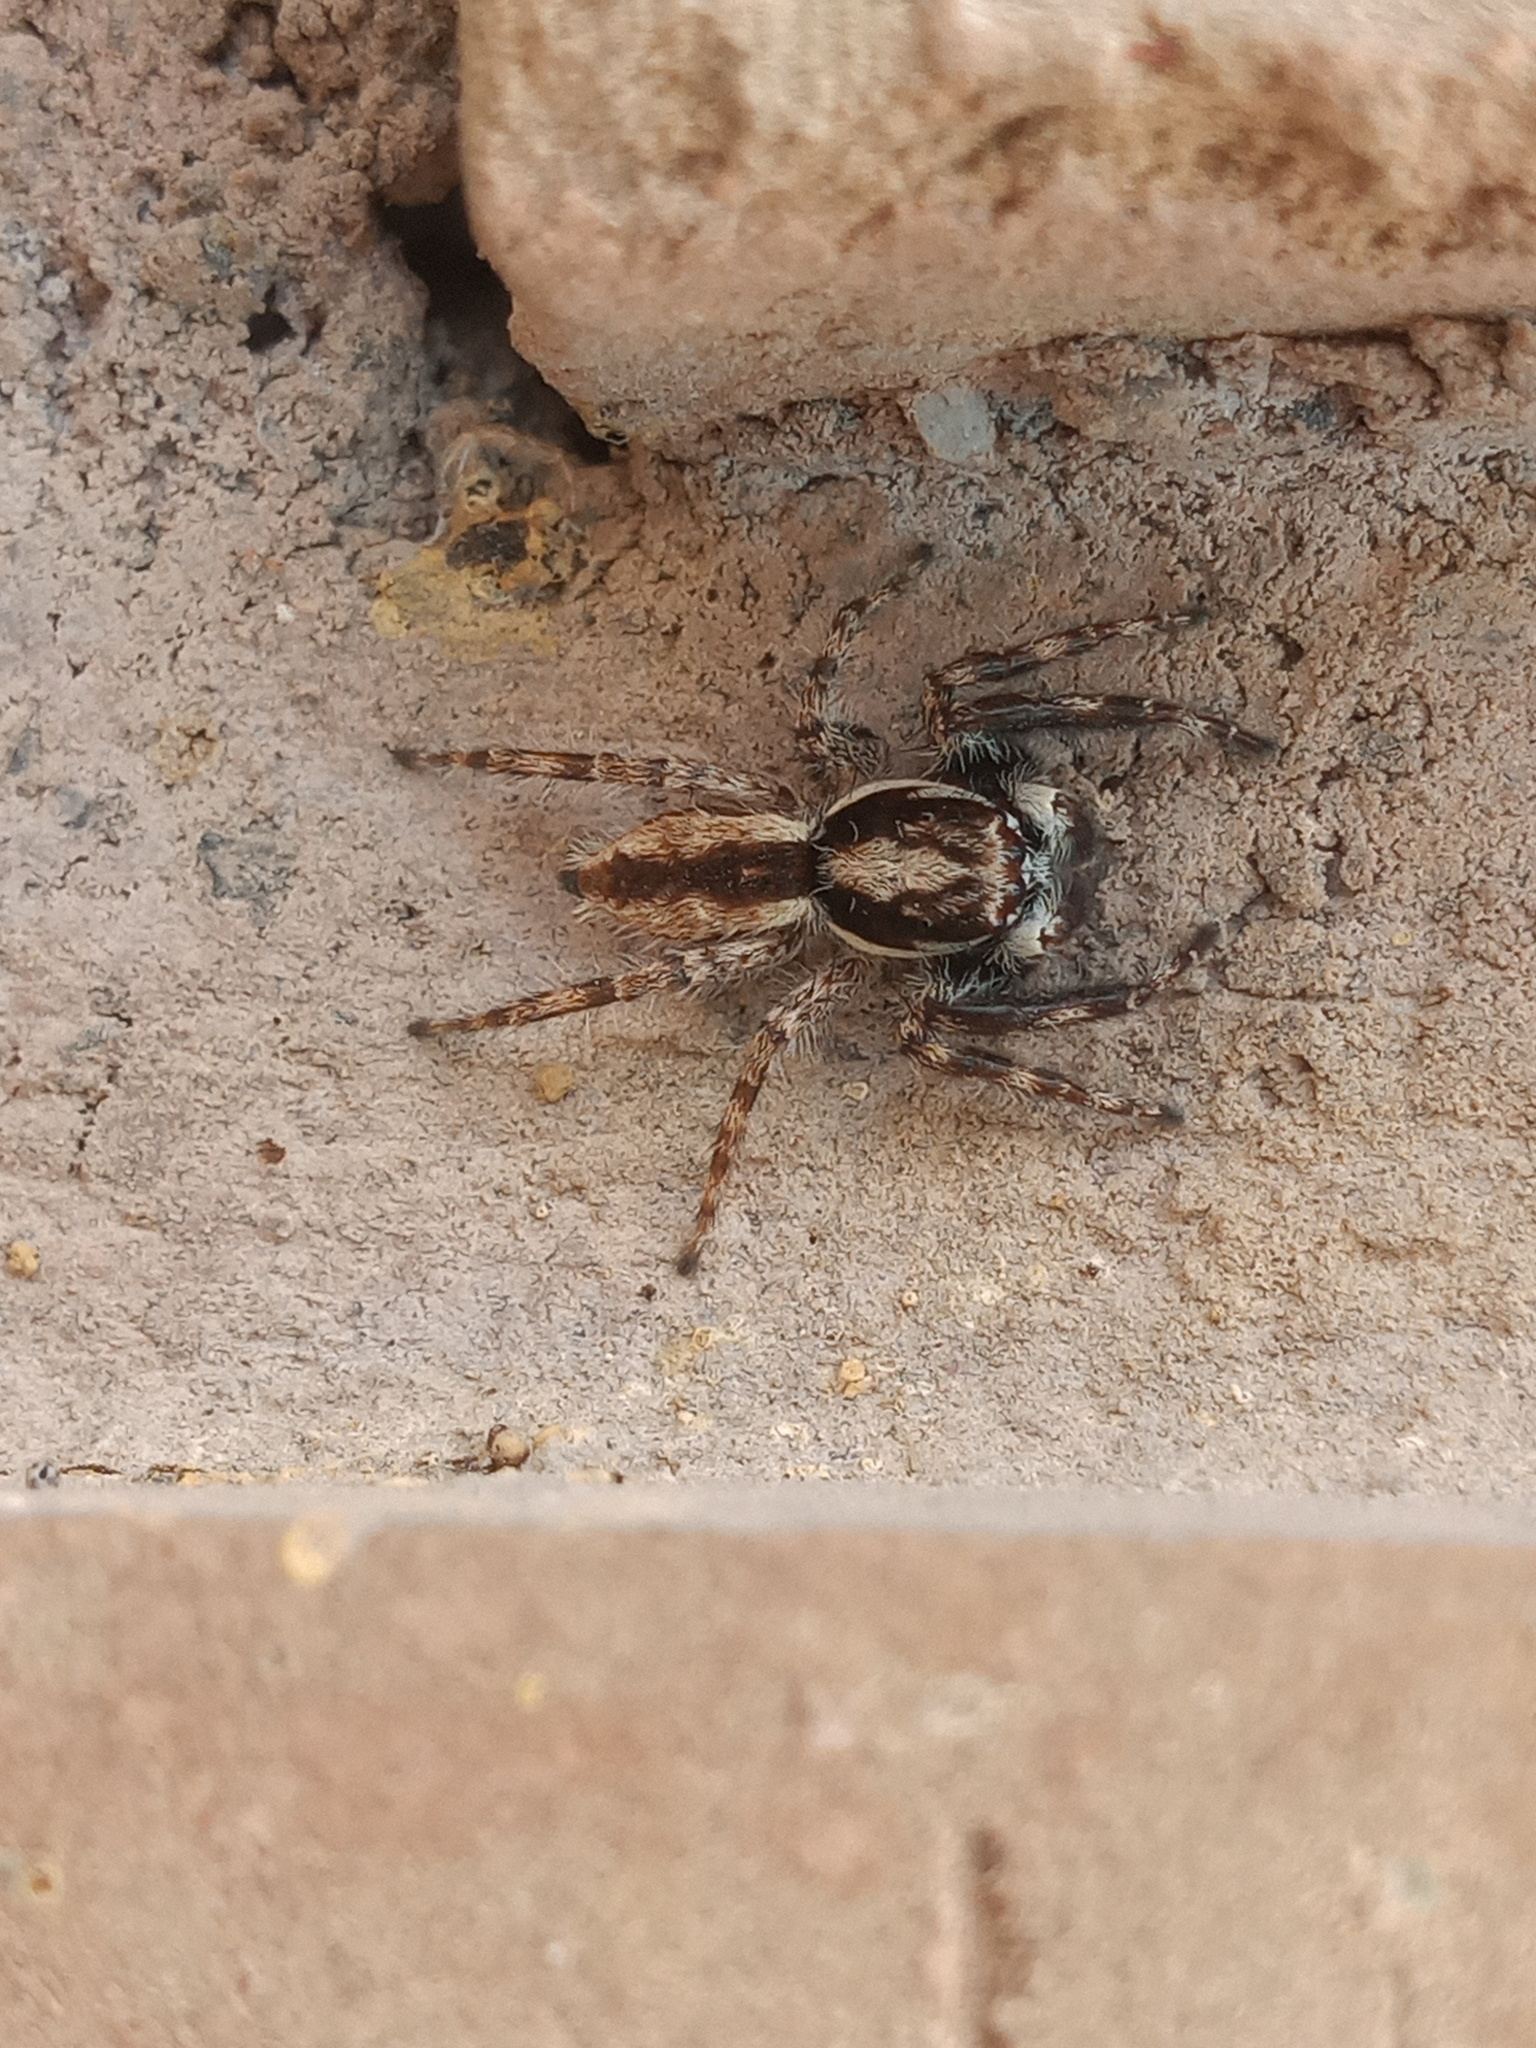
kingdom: Animalia
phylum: Arthropoda
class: Arachnida
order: Araneae
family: Salticidae
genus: Menemerus
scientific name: Menemerus bivittatus
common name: Gray wall jumper
